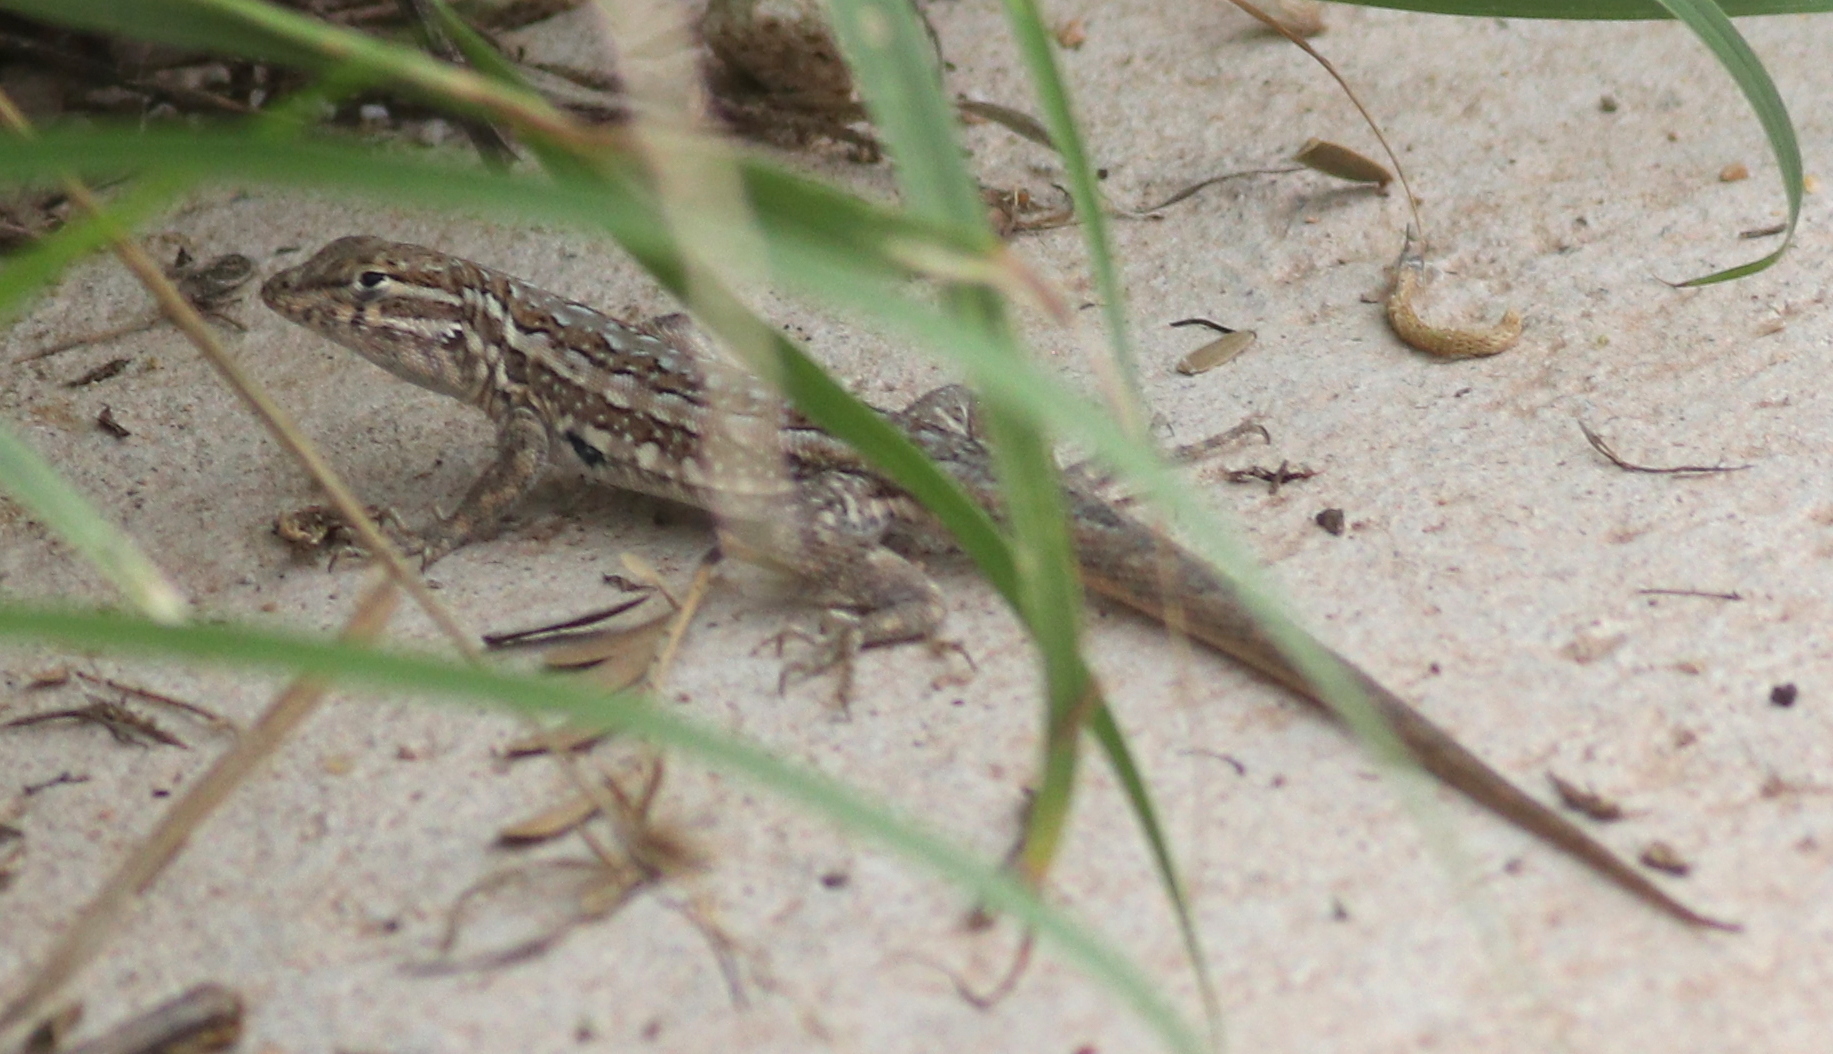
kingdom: Animalia
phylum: Chordata
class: Squamata
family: Phrynosomatidae
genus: Uta
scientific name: Uta stansburiana
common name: Side-blotched lizard
